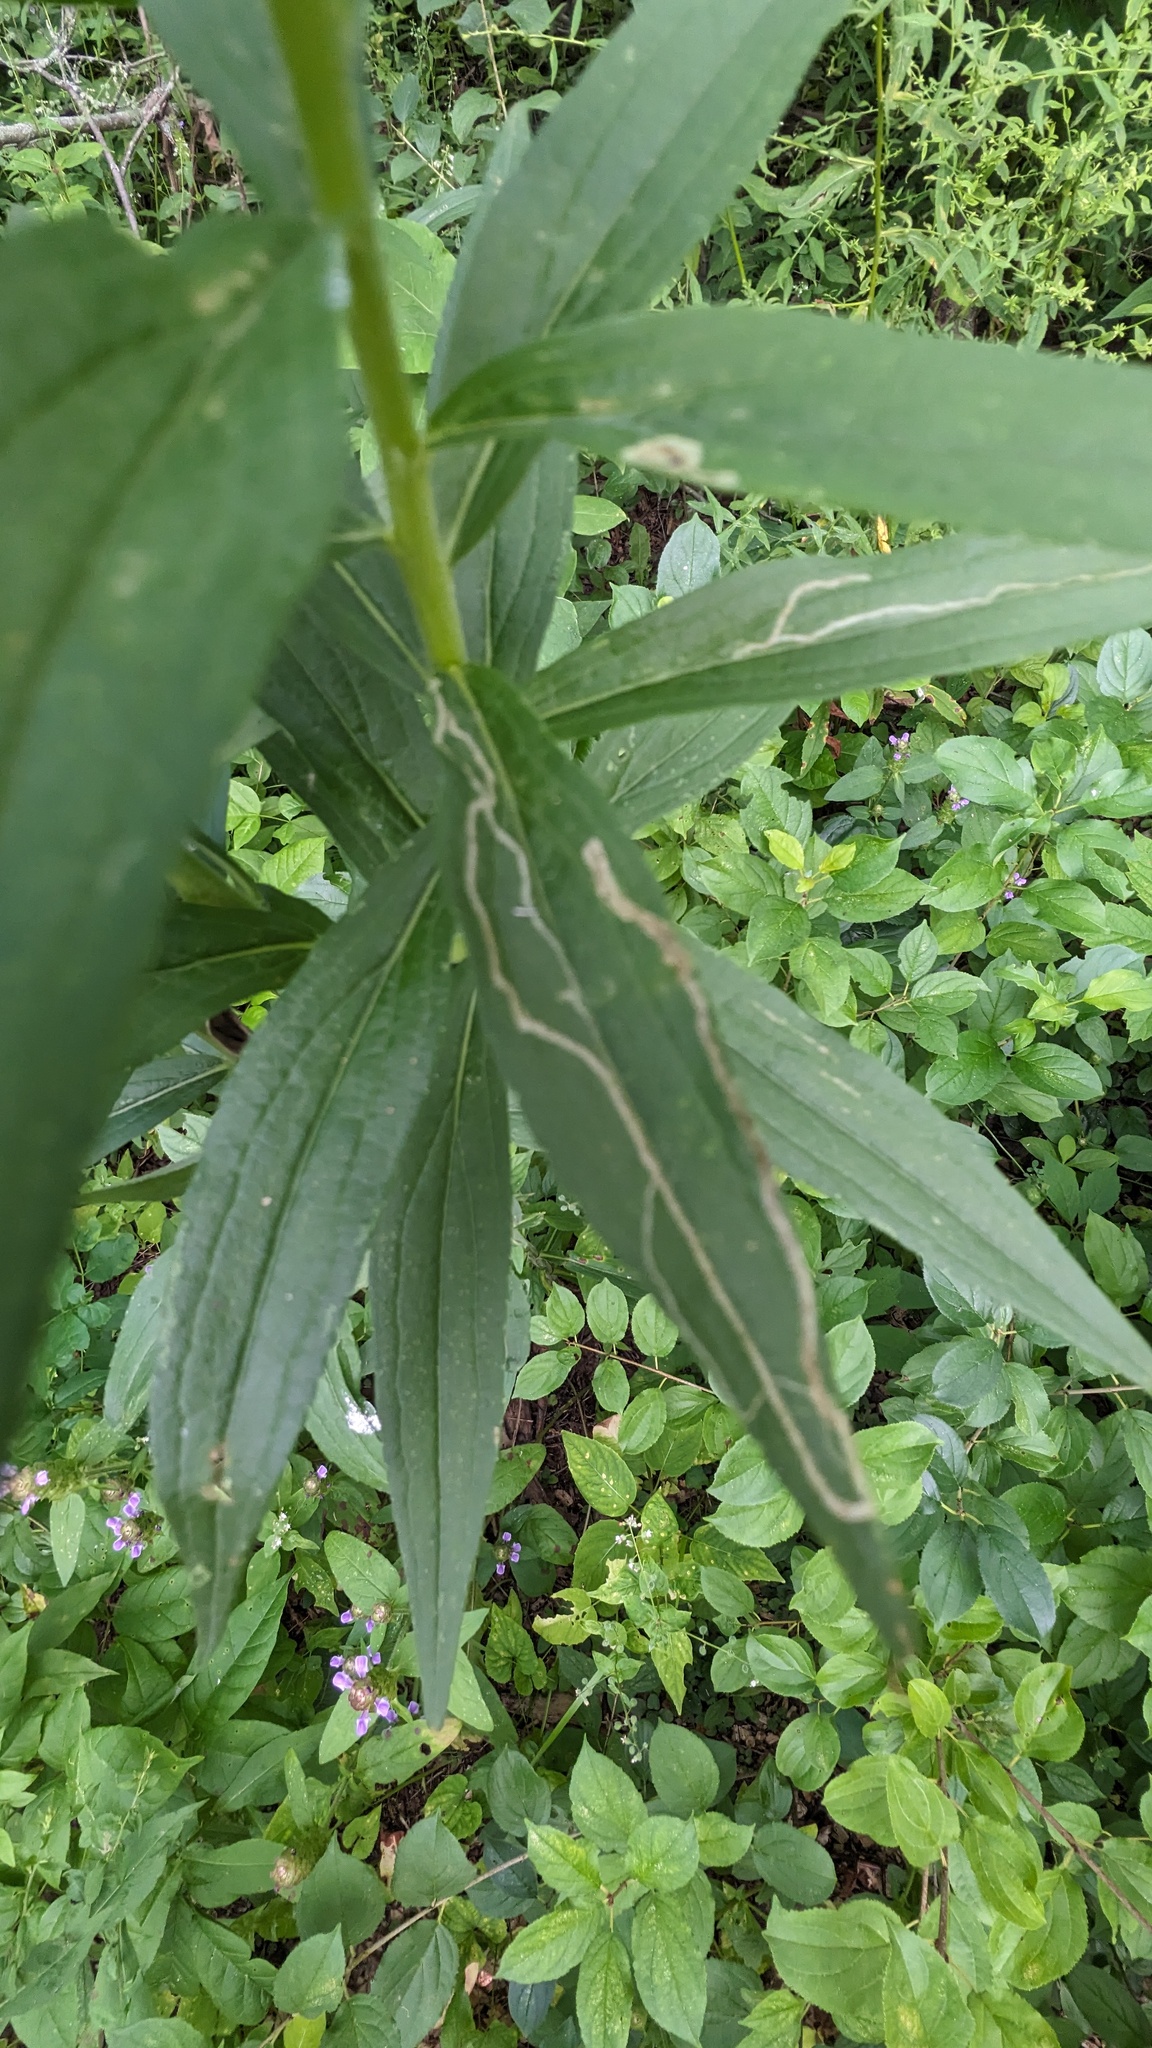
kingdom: Animalia
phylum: Arthropoda
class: Insecta
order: Diptera
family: Agromyzidae
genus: Ophiomyia
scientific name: Ophiomyia maura
